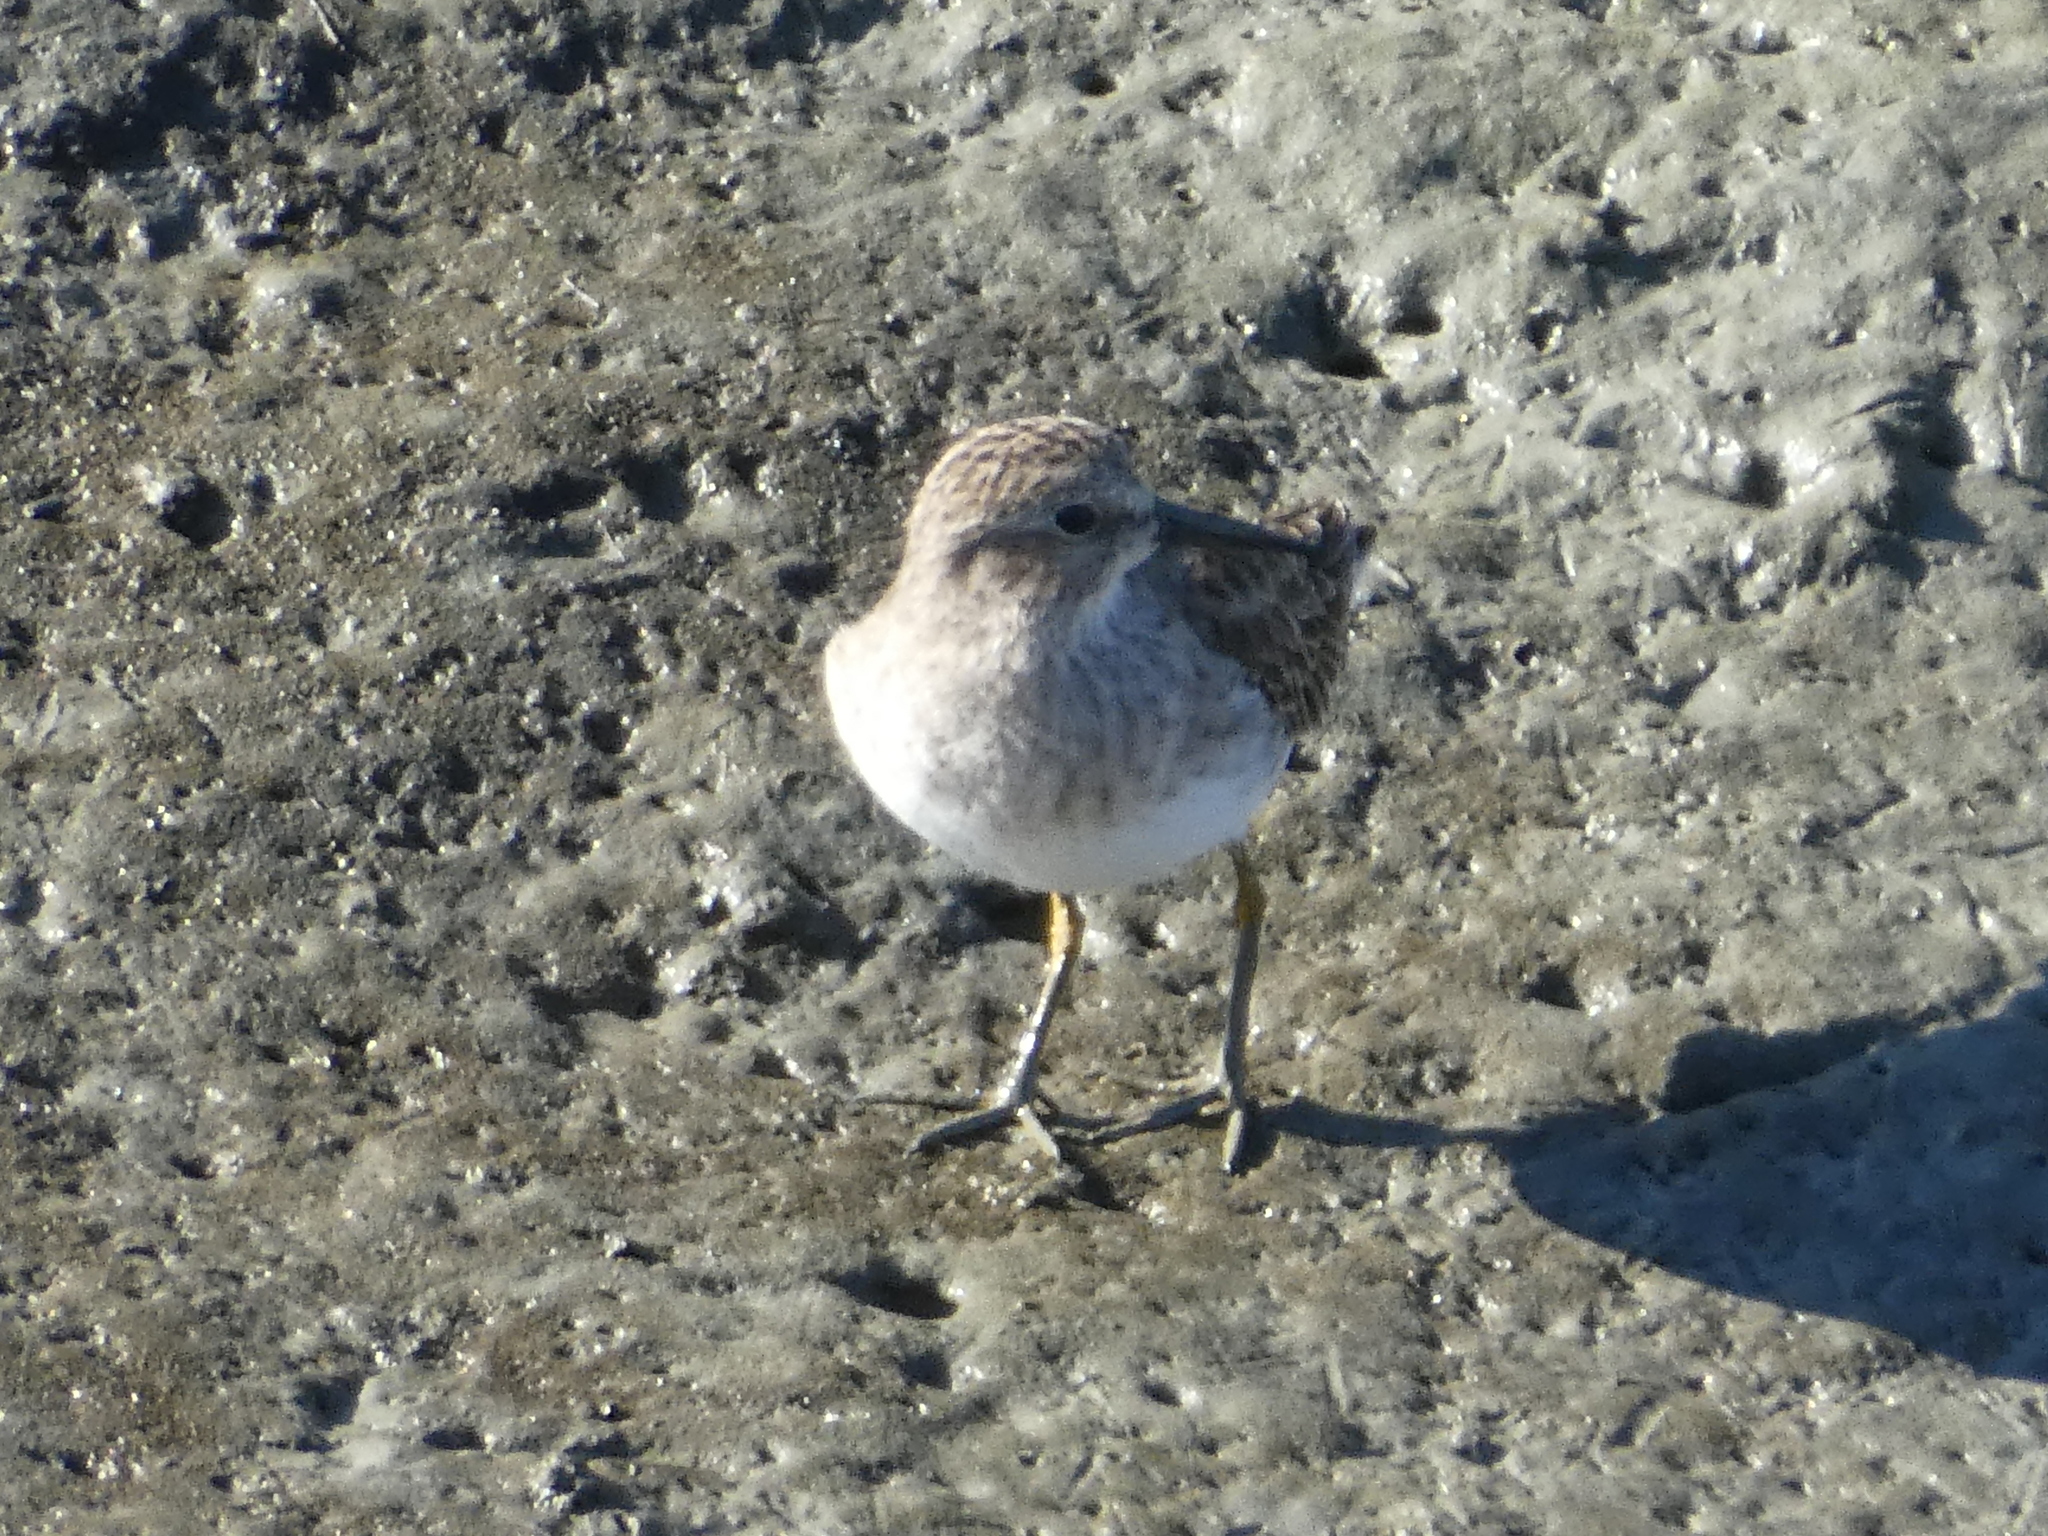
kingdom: Animalia
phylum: Chordata
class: Aves
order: Charadriiformes
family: Scolopacidae
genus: Calidris
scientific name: Calidris minutilla
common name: Least sandpiper
